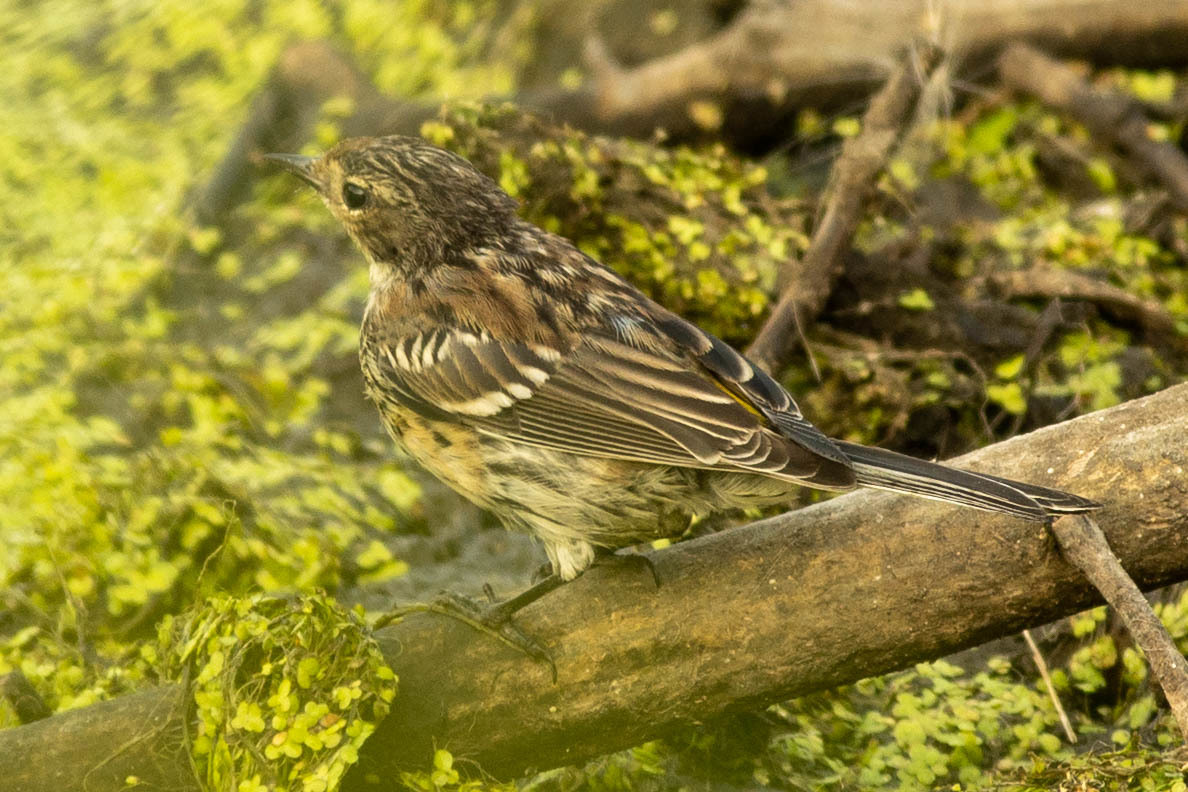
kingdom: Animalia
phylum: Chordata
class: Aves
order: Passeriformes
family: Parulidae
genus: Setophaga
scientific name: Setophaga coronata
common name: Myrtle warbler
